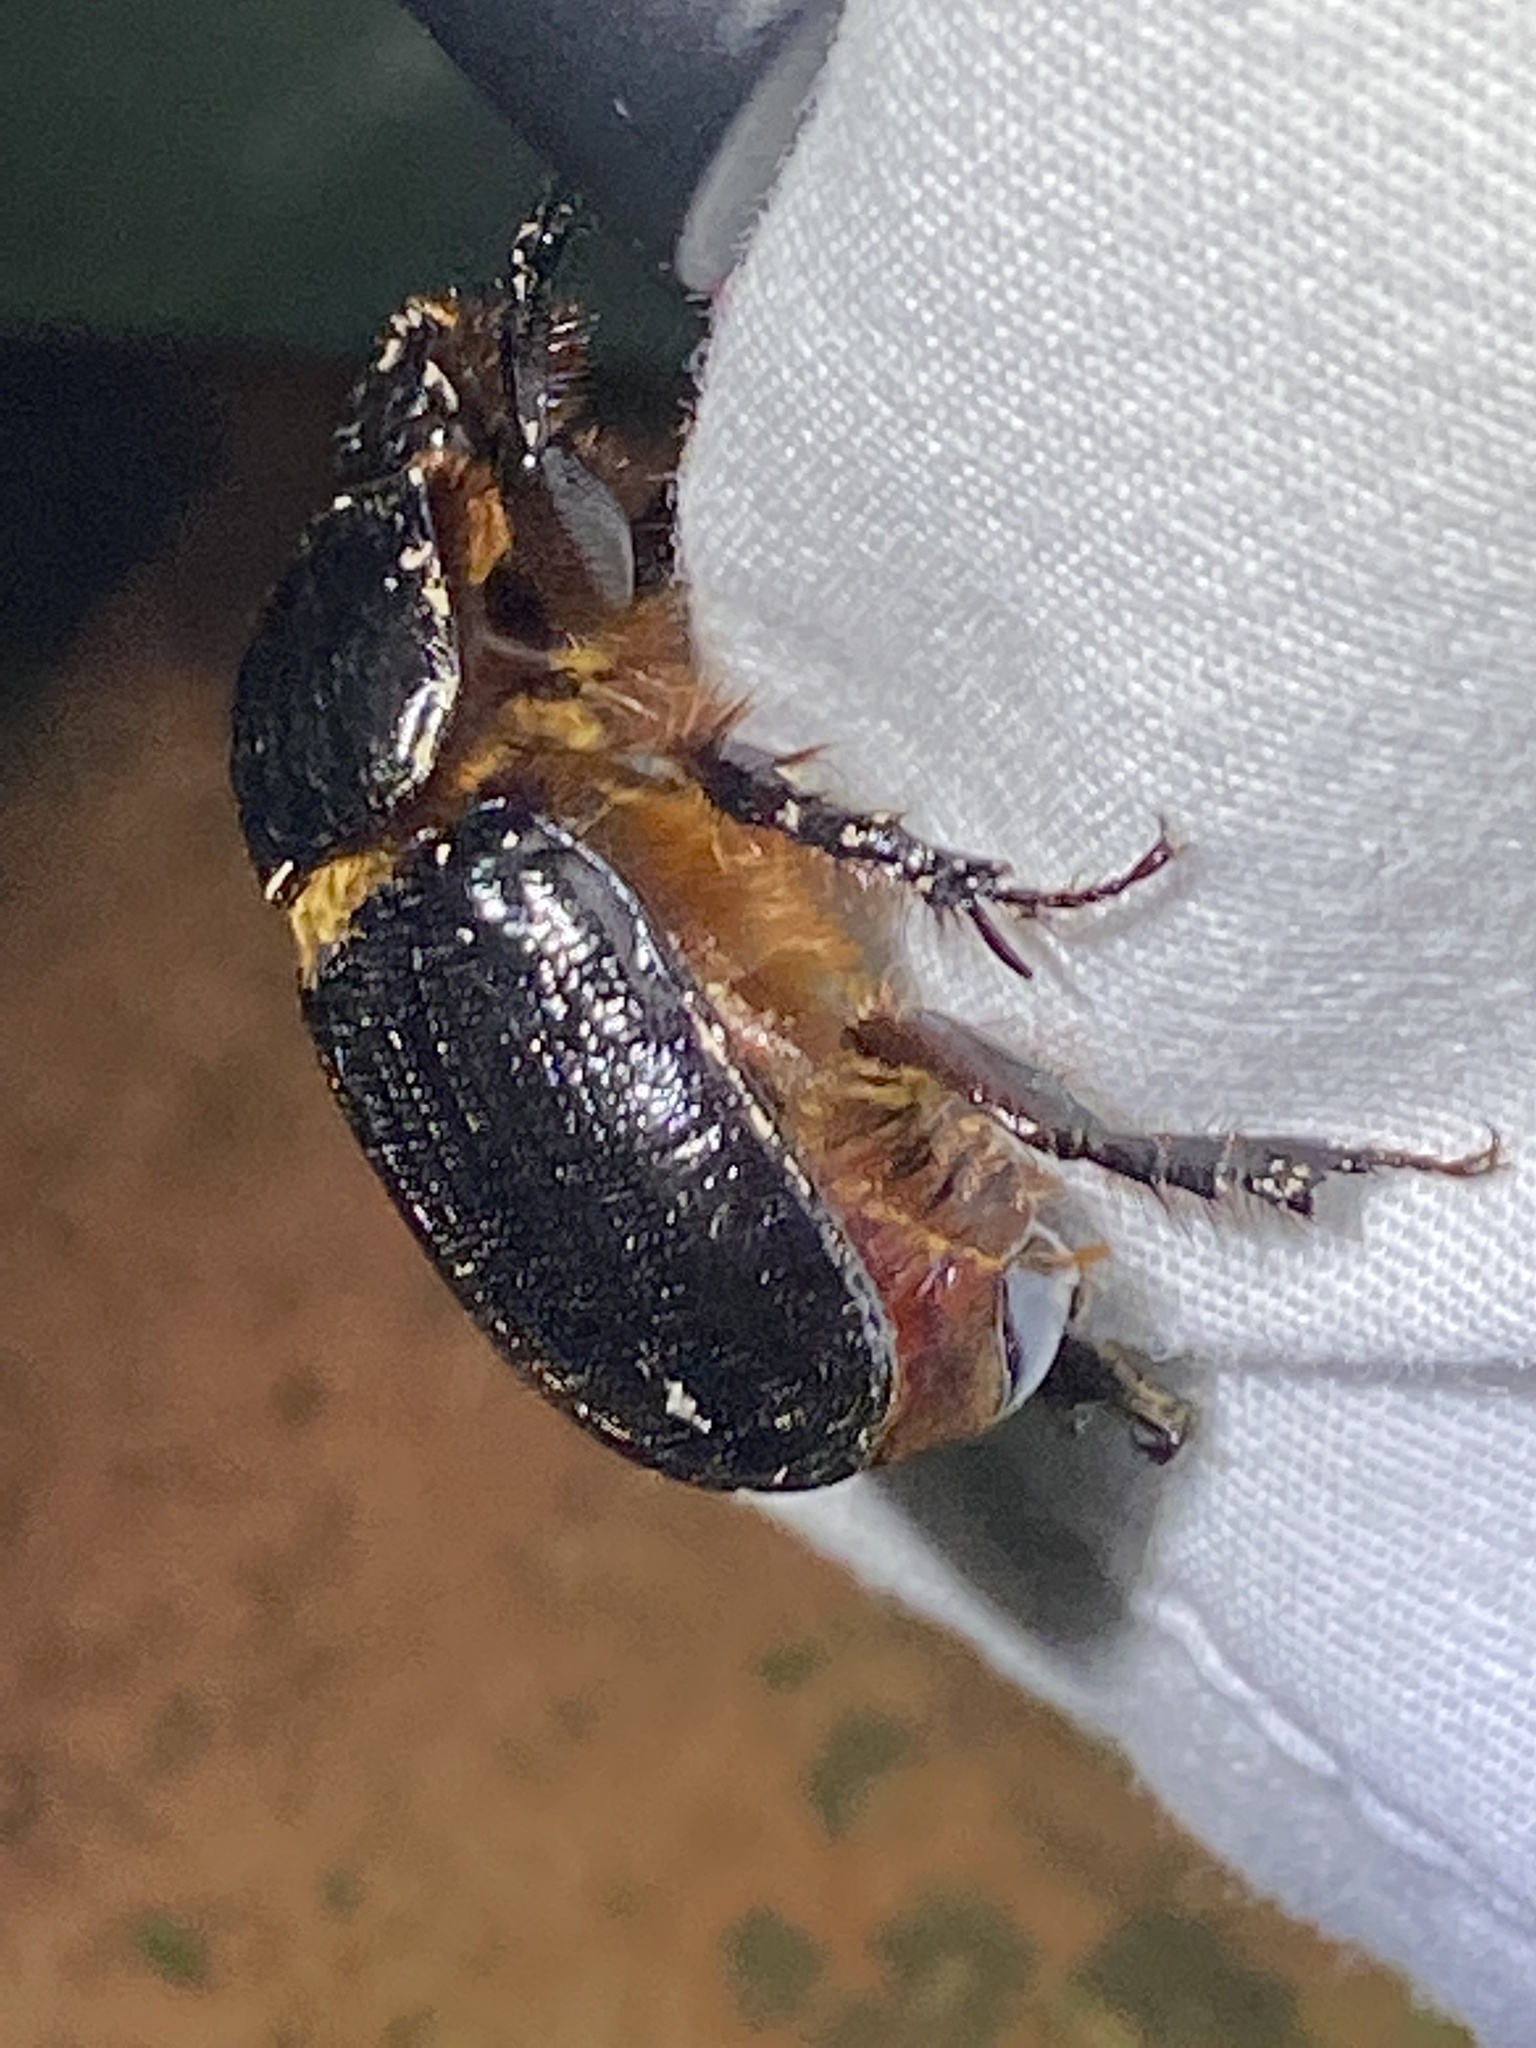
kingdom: Animalia
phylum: Arthropoda
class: Insecta
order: Coleoptera
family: Scarabaeidae
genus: Xyloryctes
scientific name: Xyloryctes jamaicensis
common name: Eastern rhinoceros beetle
